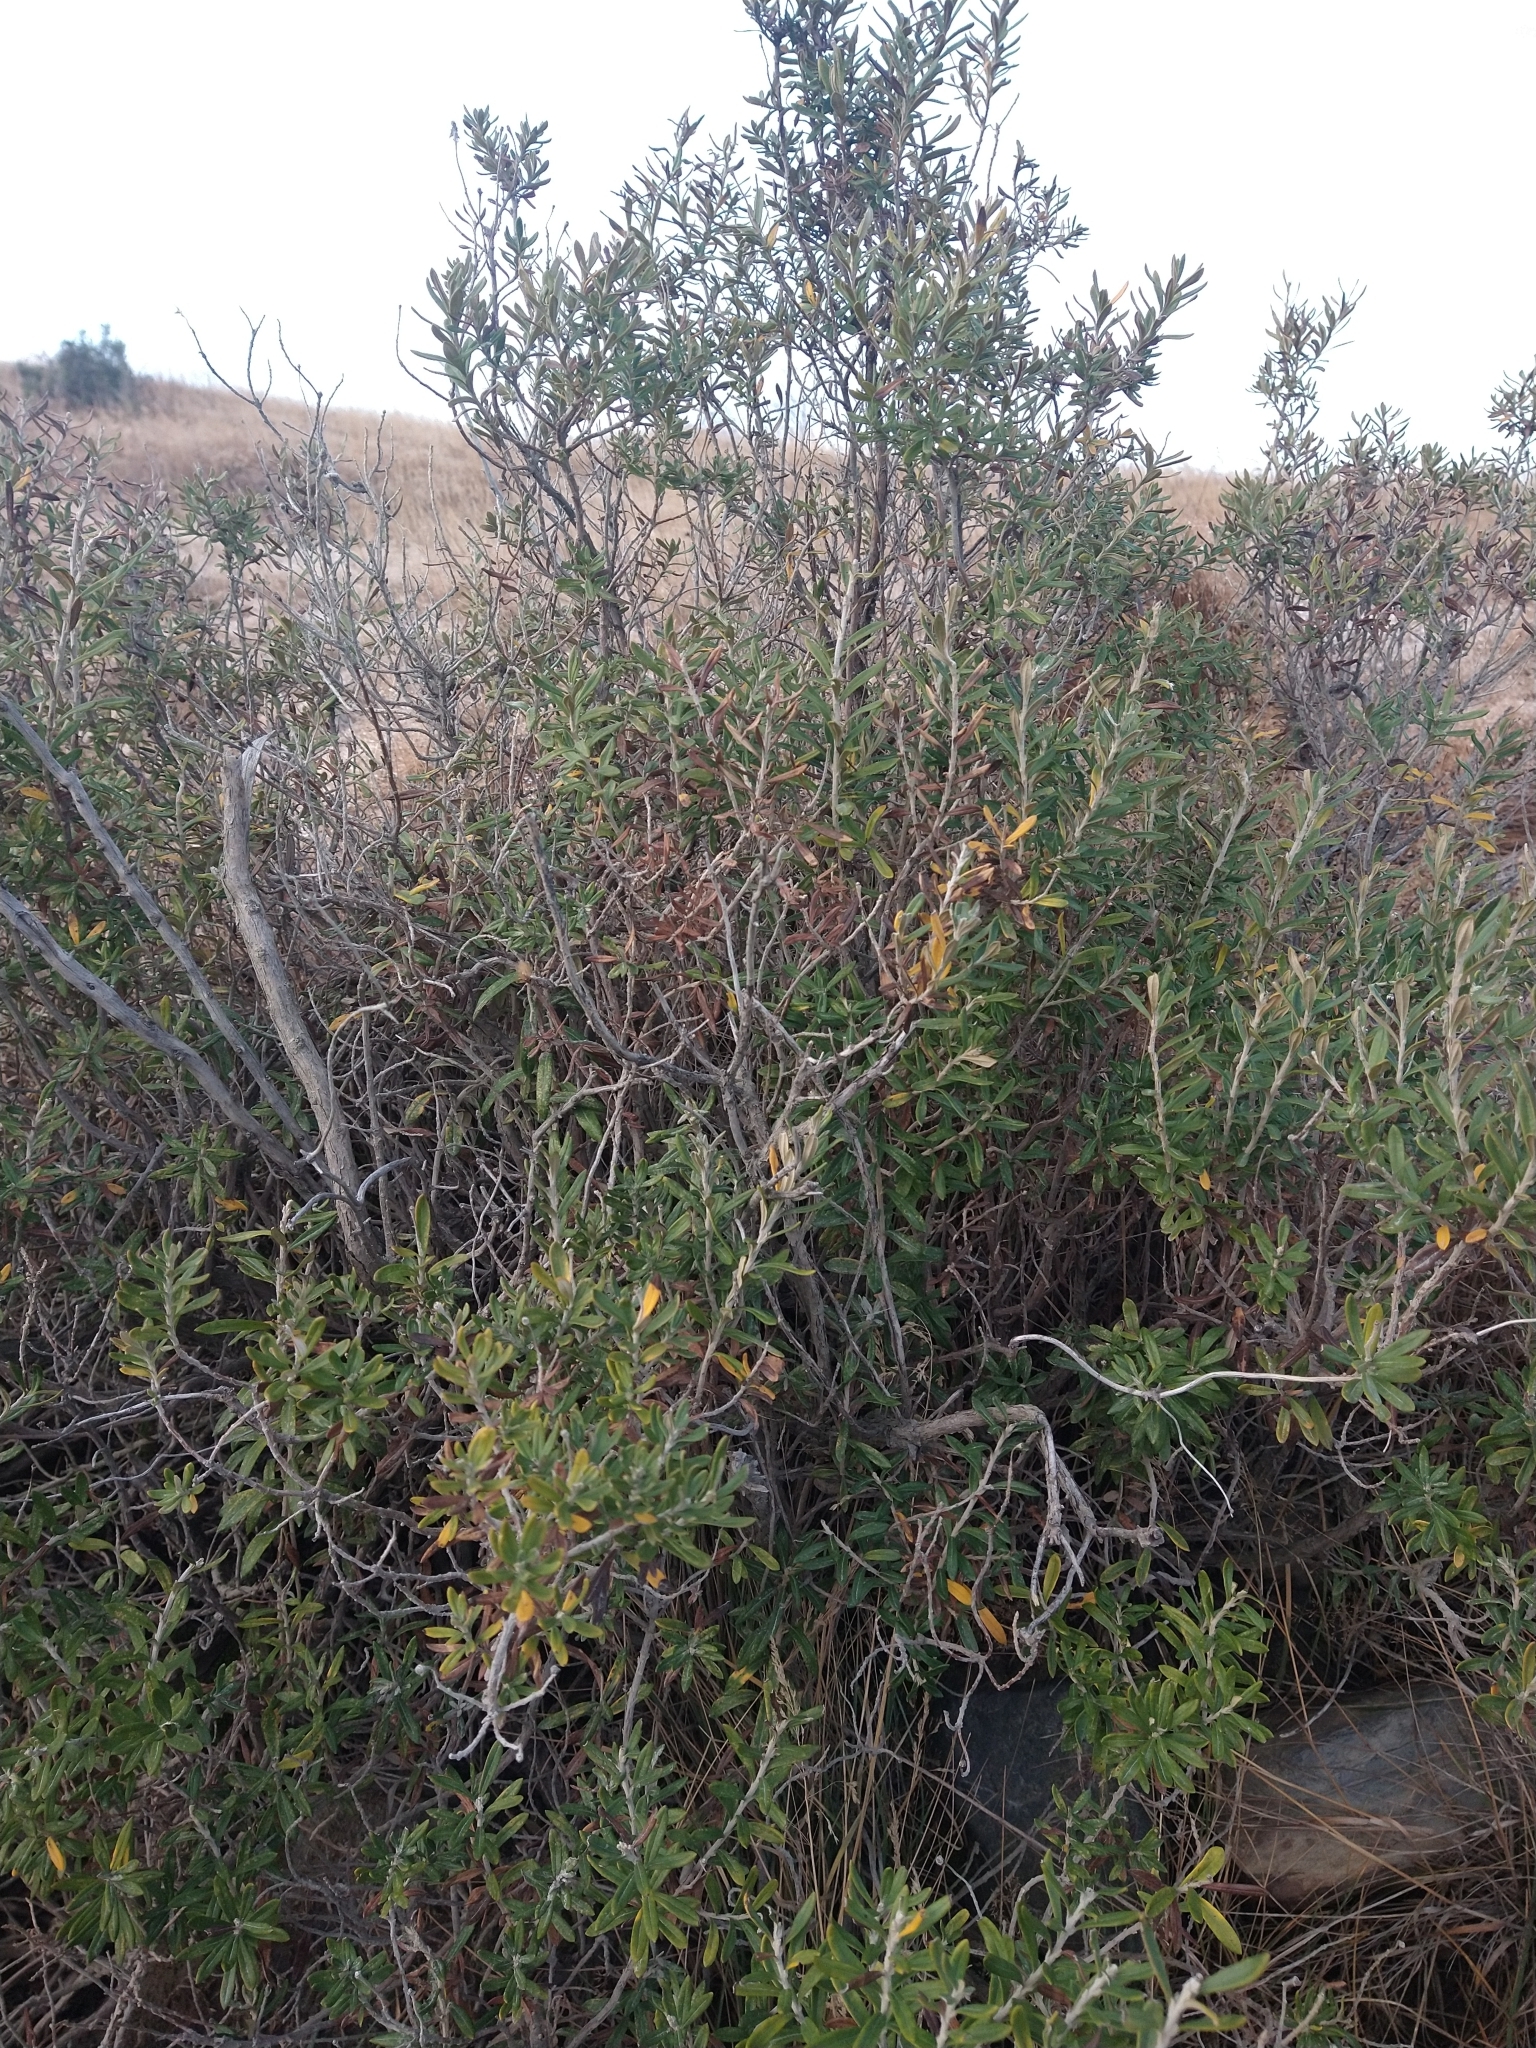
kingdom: Plantae
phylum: Tracheophyta
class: Magnoliopsida
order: Asterales
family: Asteraceae
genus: Chiliotrichum
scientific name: Chiliotrichum diffusum
